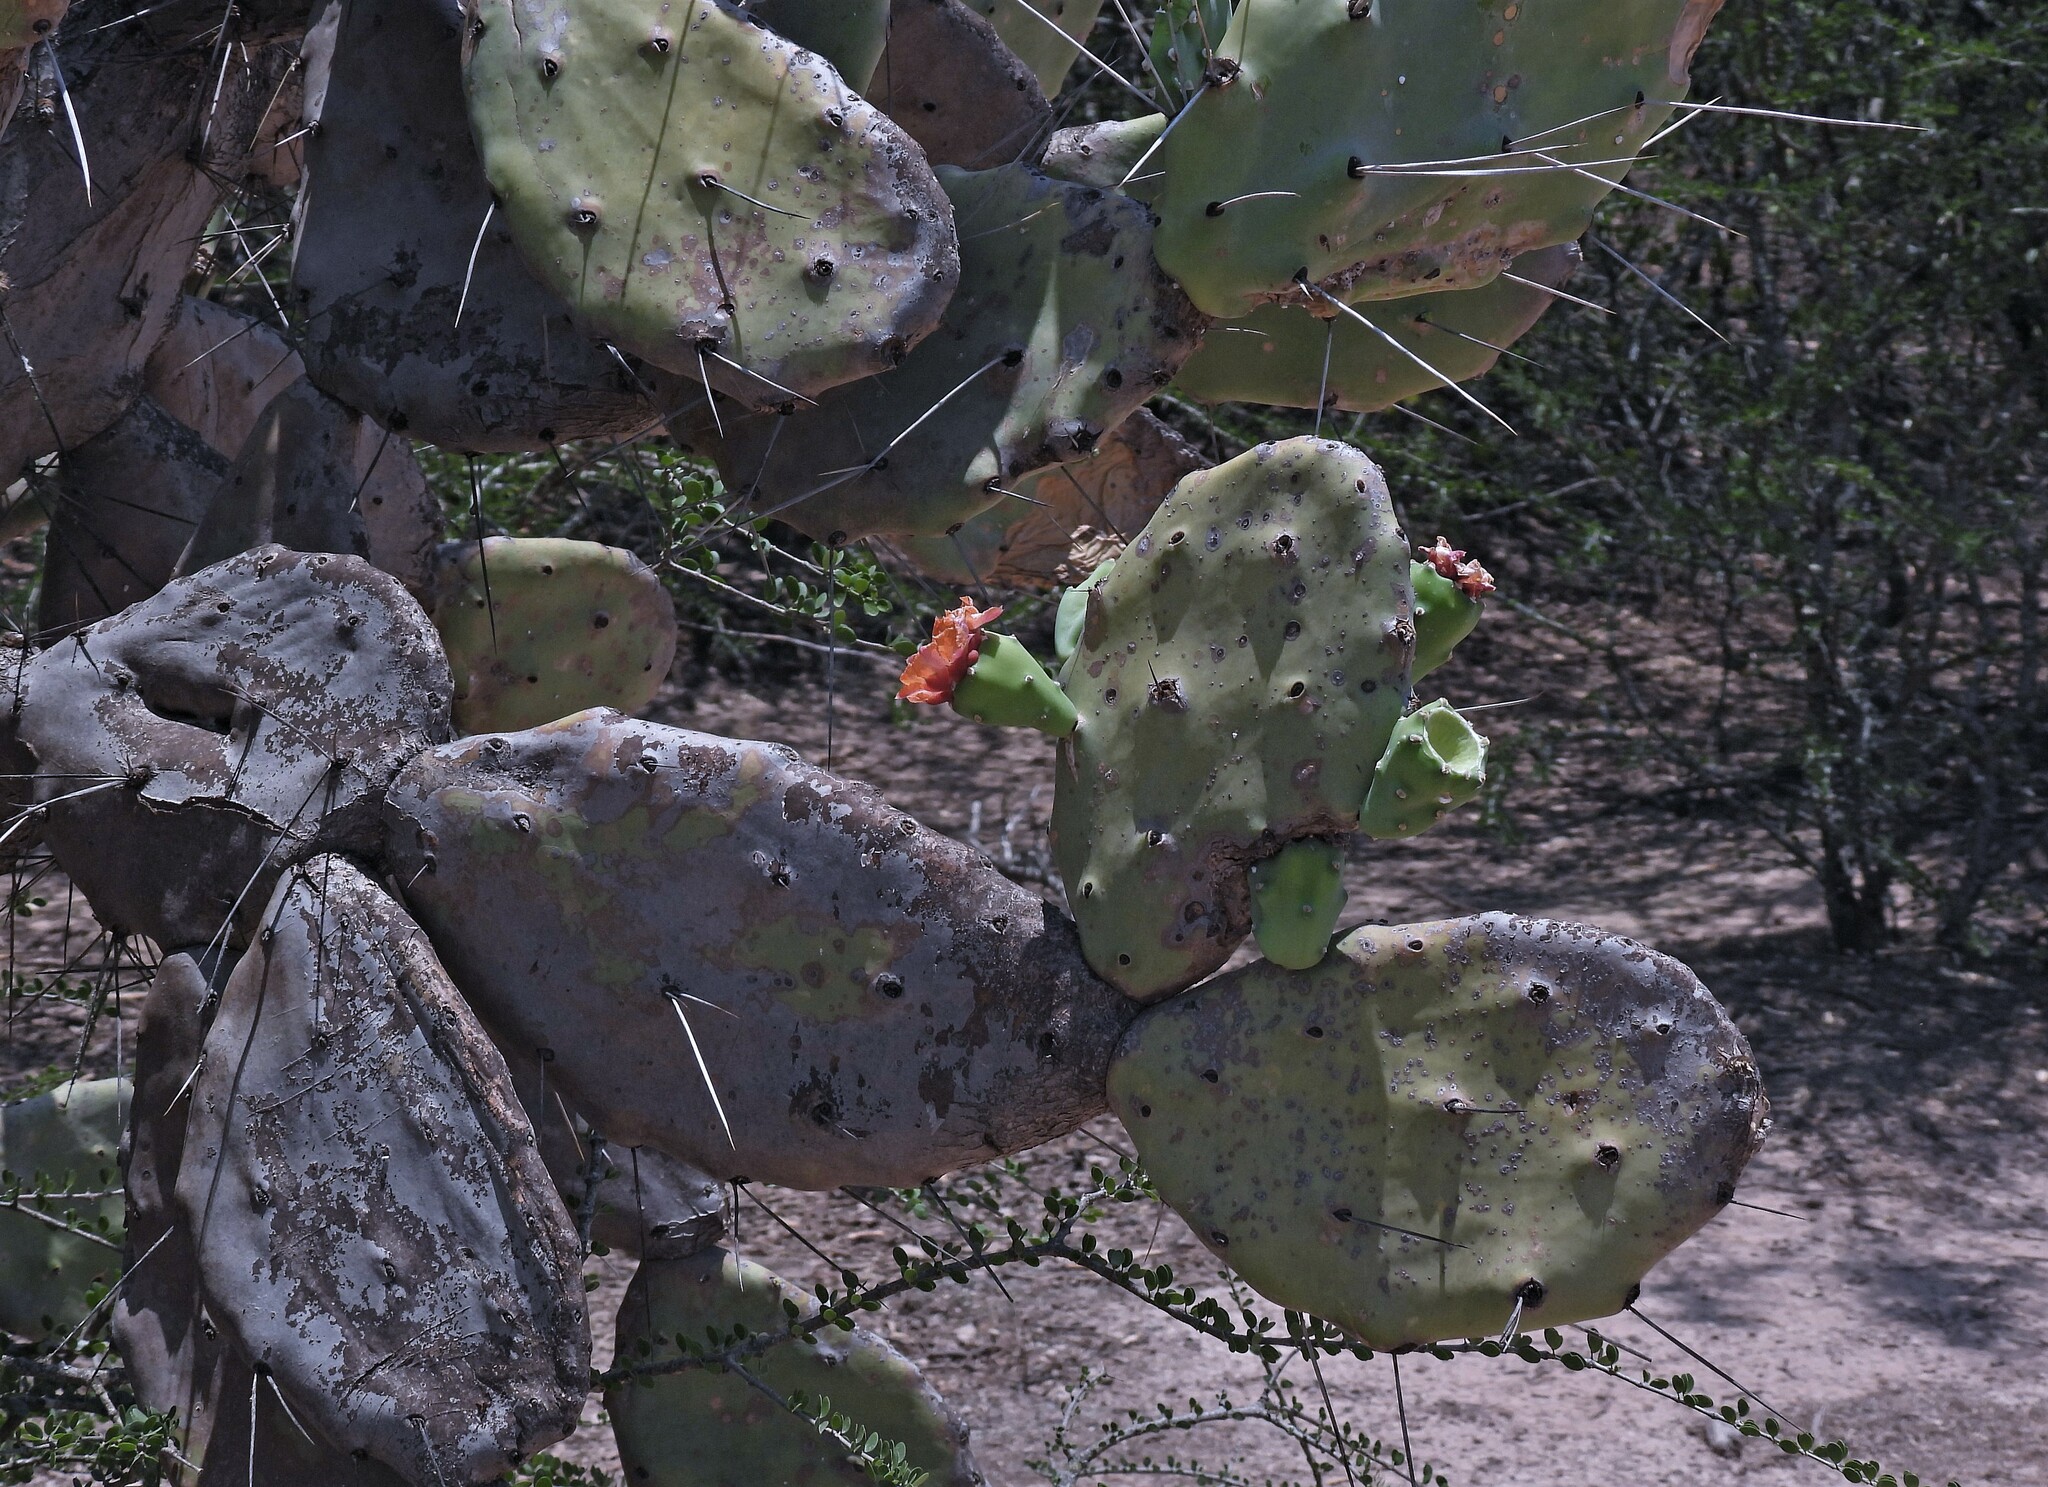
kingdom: Plantae
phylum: Tracheophyta
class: Magnoliopsida
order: Caryophyllales
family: Cactaceae
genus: Opuntia
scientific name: Opuntia quimilo
